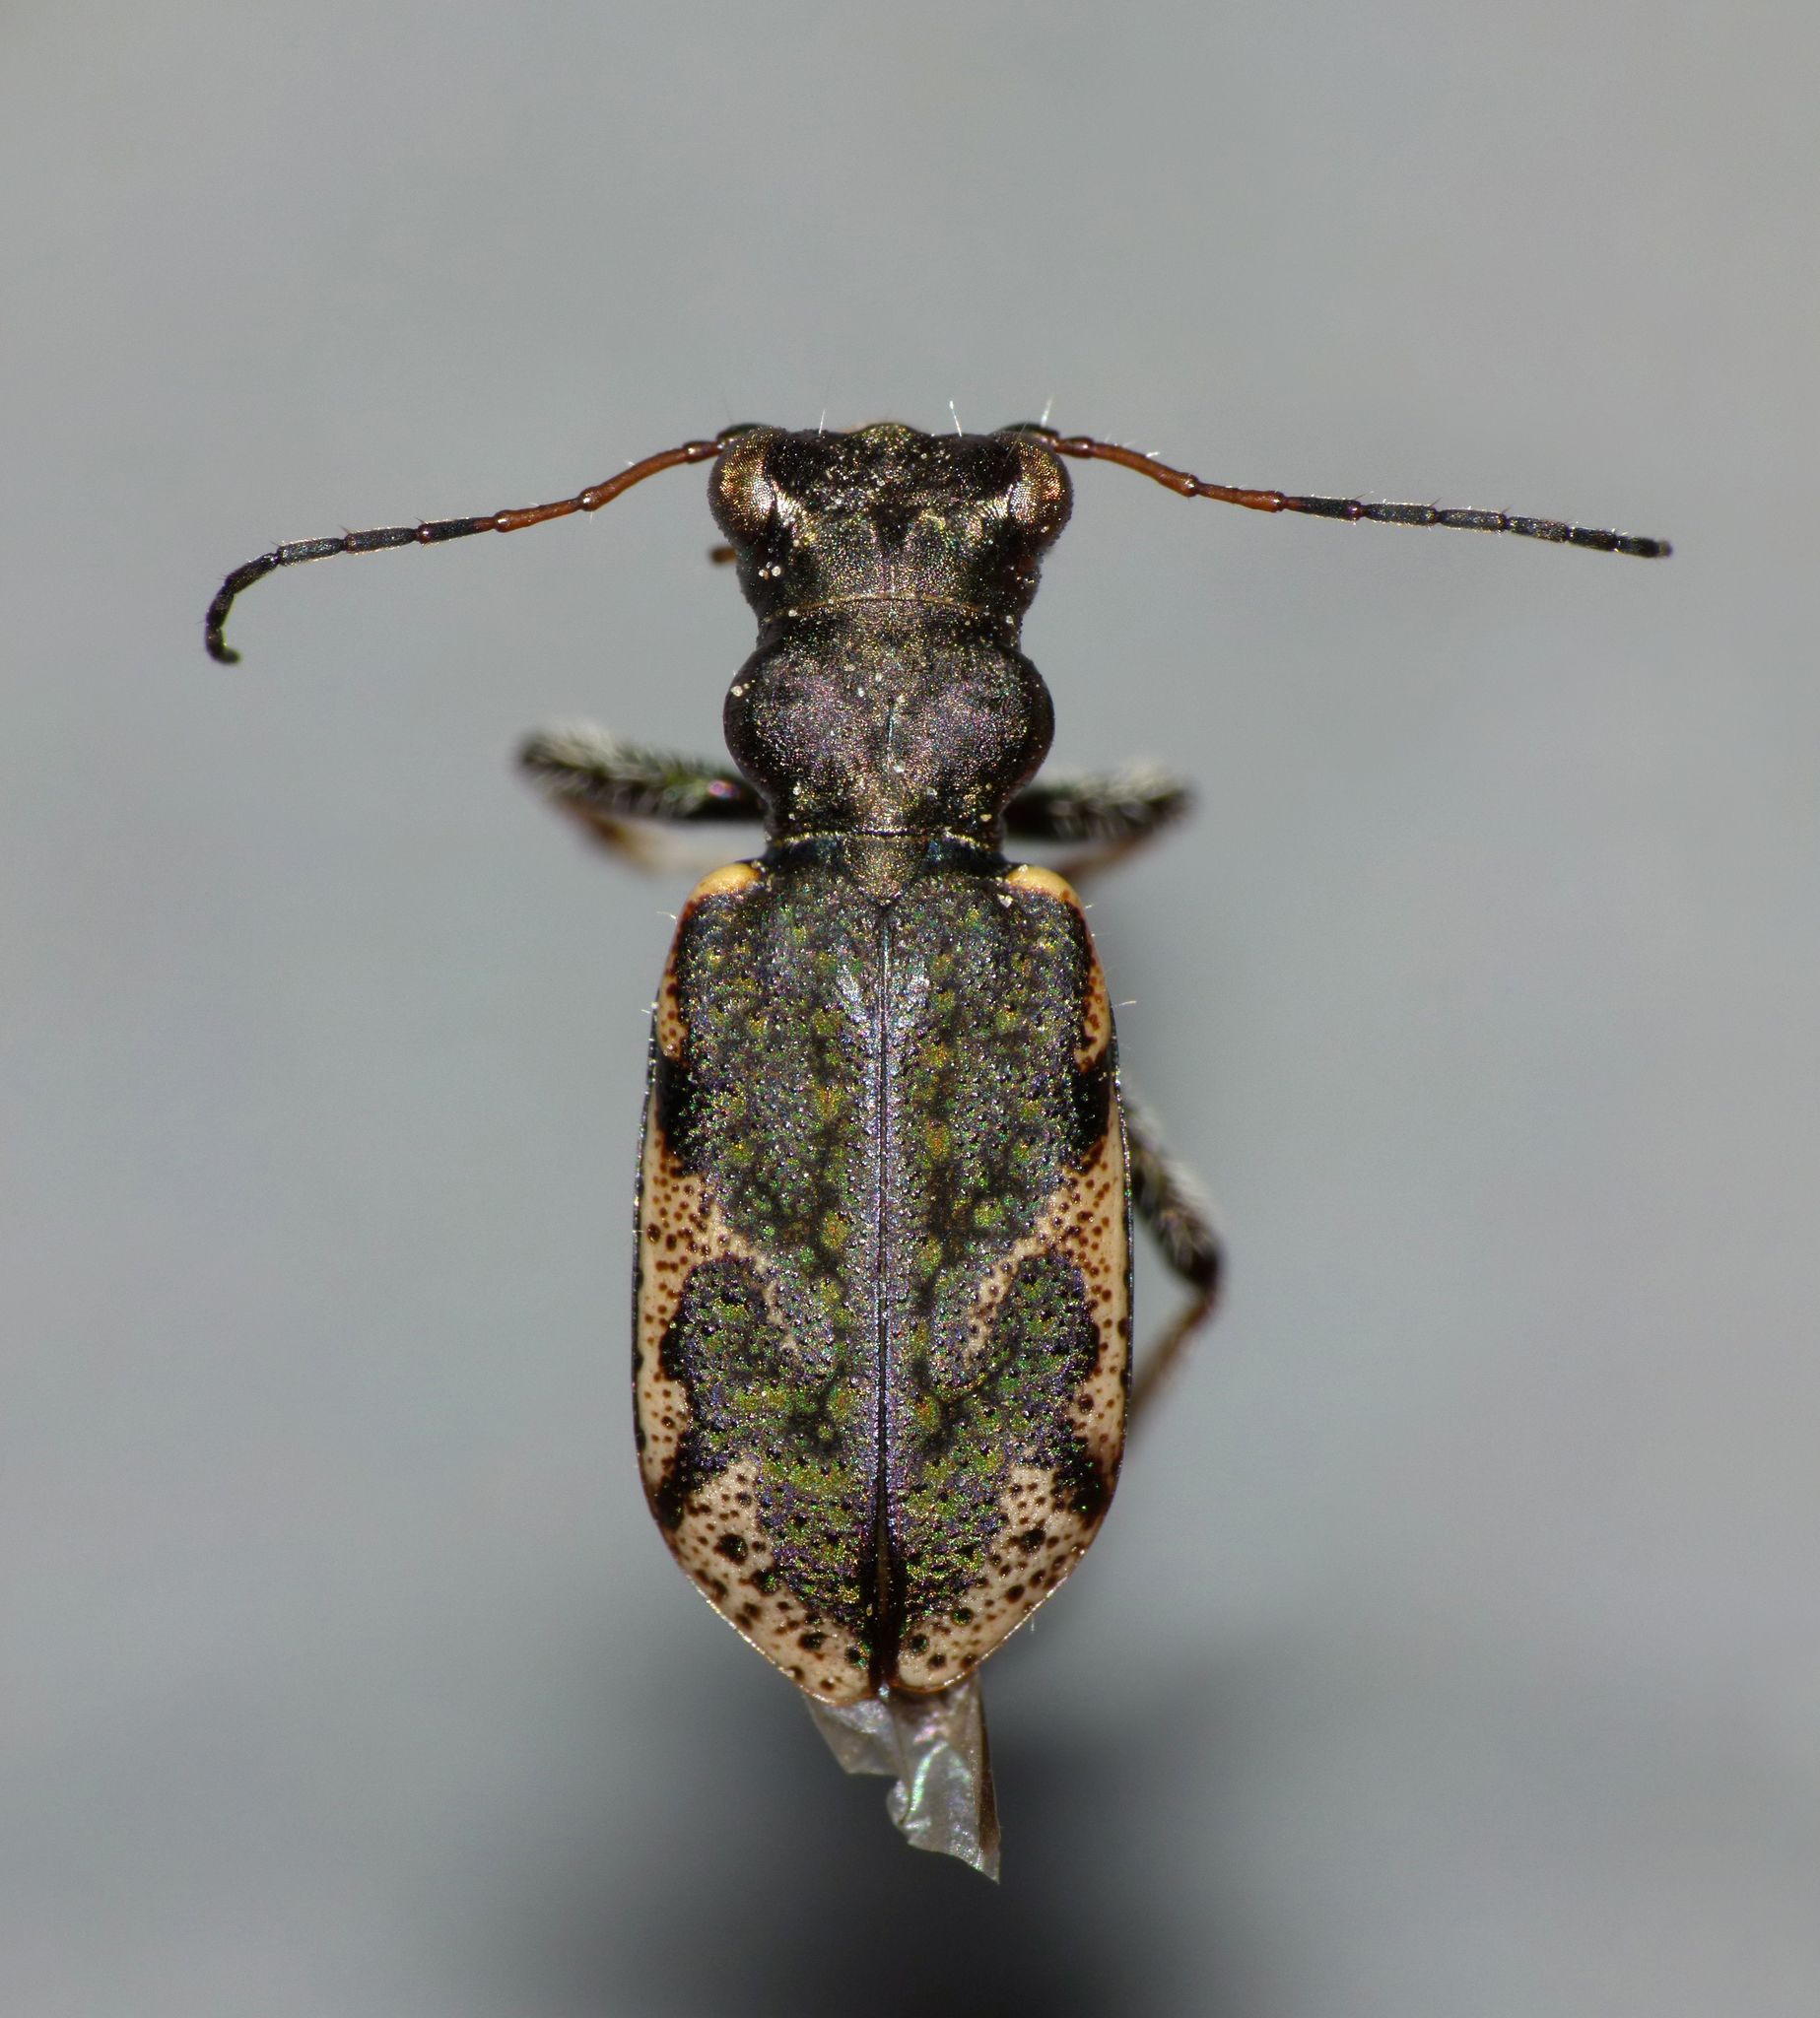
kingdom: Animalia
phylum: Arthropoda
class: Insecta
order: Coleoptera
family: Carabidae
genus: Neocicindela
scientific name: Neocicindela garnerae
